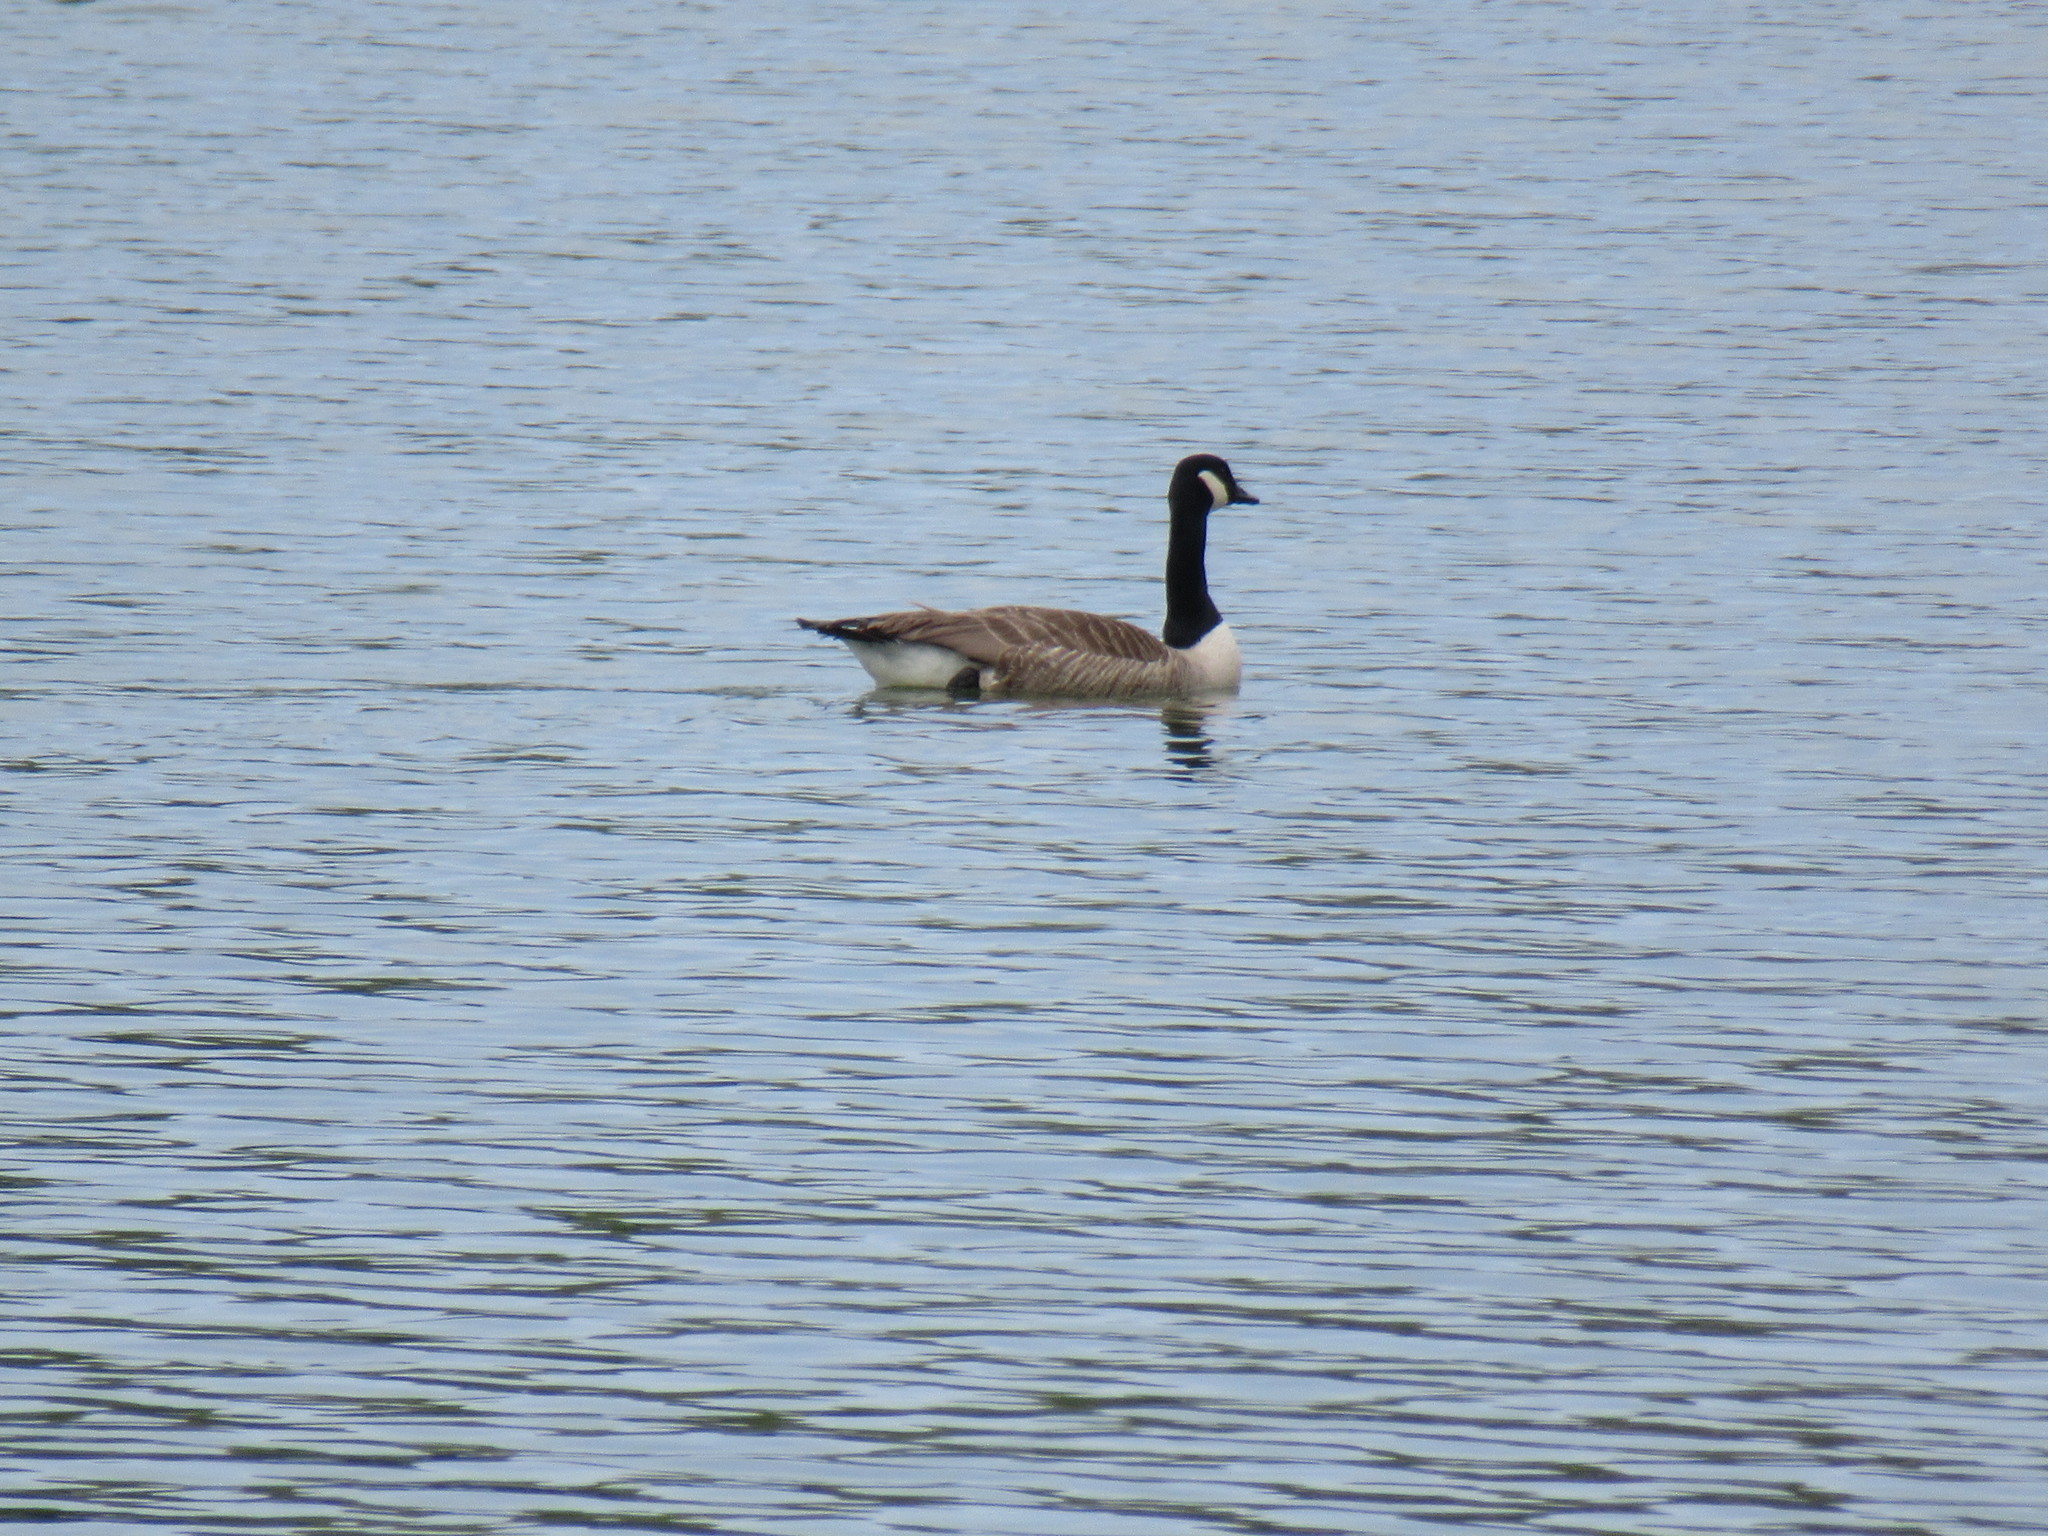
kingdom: Animalia
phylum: Chordata
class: Aves
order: Anseriformes
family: Anatidae
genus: Branta
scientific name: Branta canadensis
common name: Canada goose
